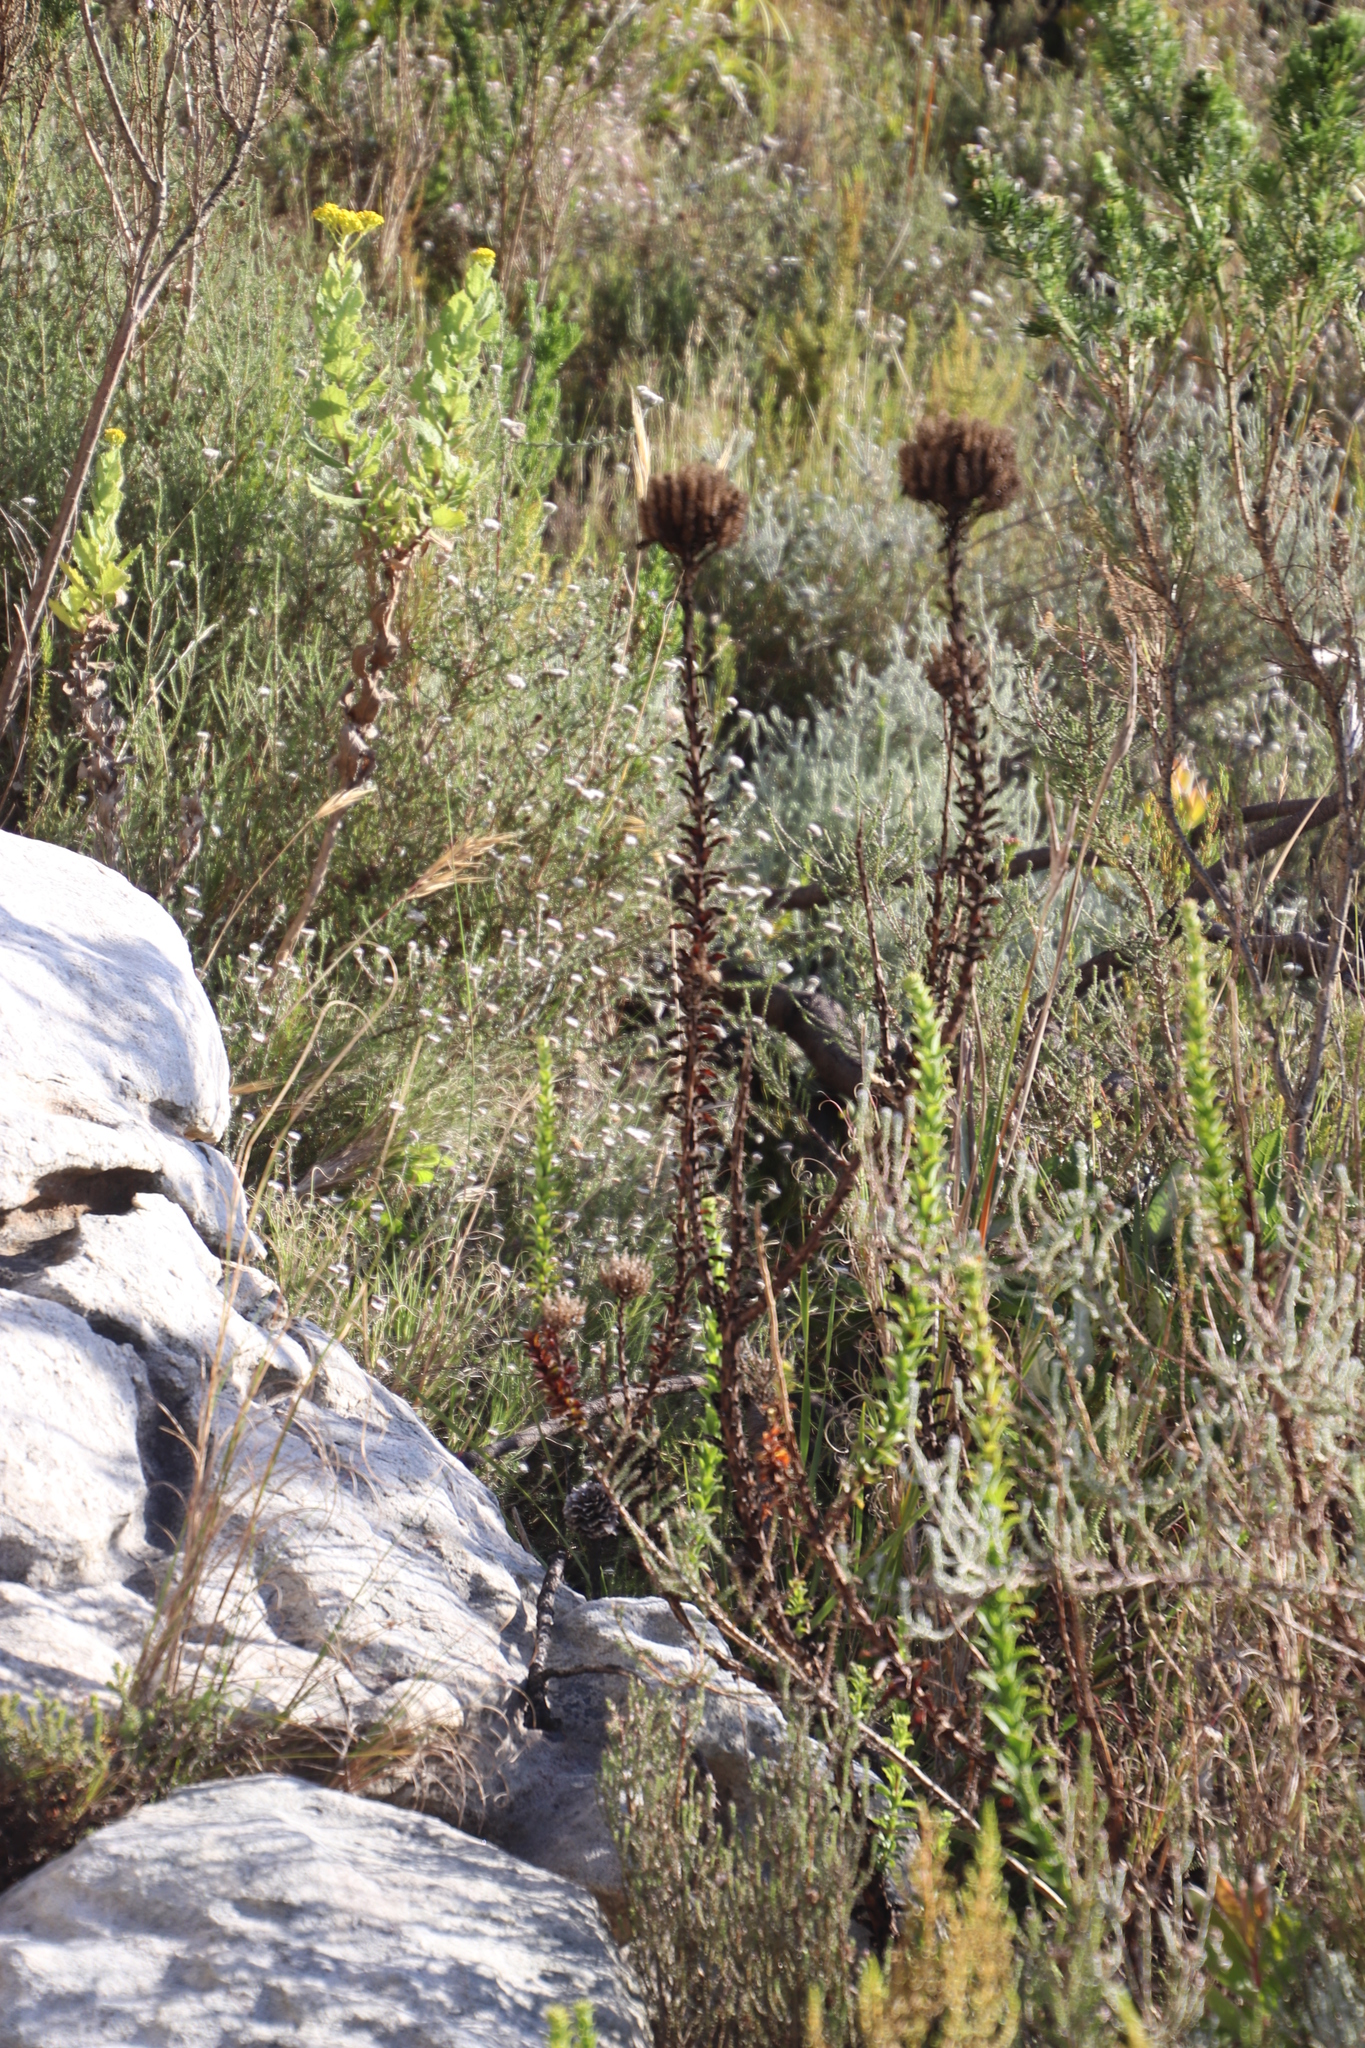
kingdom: Plantae
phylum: Tracheophyta
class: Magnoliopsida
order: Lamiales
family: Scrophulariaceae
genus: Pseudoselago
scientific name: Pseudoselago serrata
